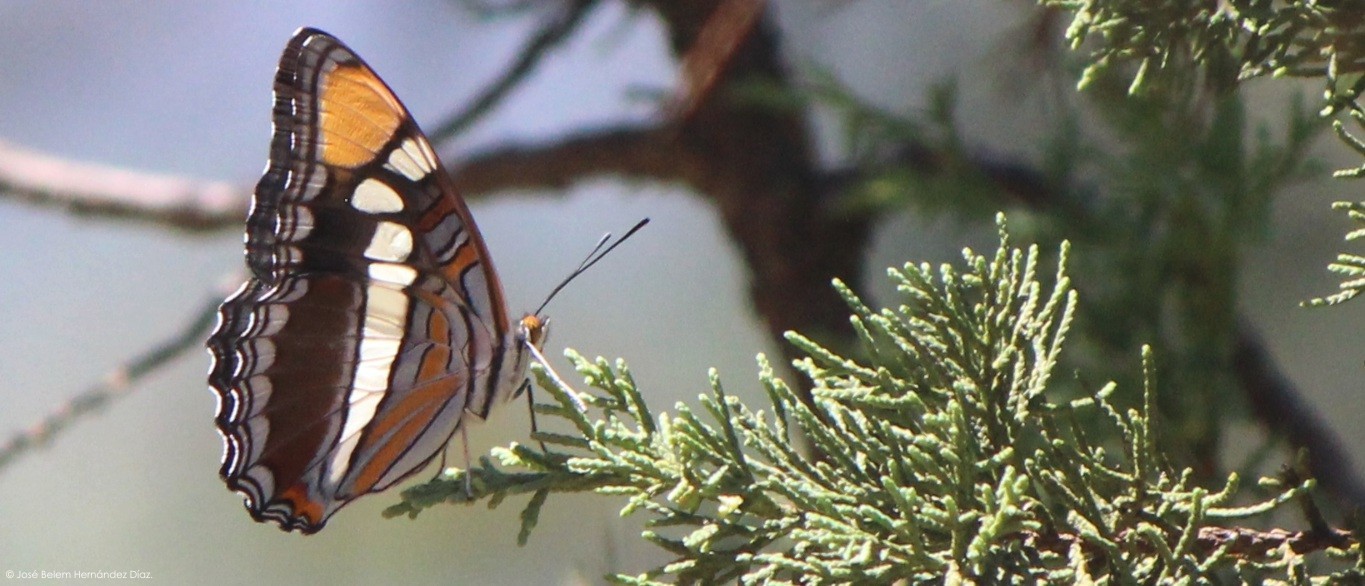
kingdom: Animalia
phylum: Arthropoda
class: Insecta
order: Lepidoptera
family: Nymphalidae
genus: Limenitis
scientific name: Limenitis bredowii
